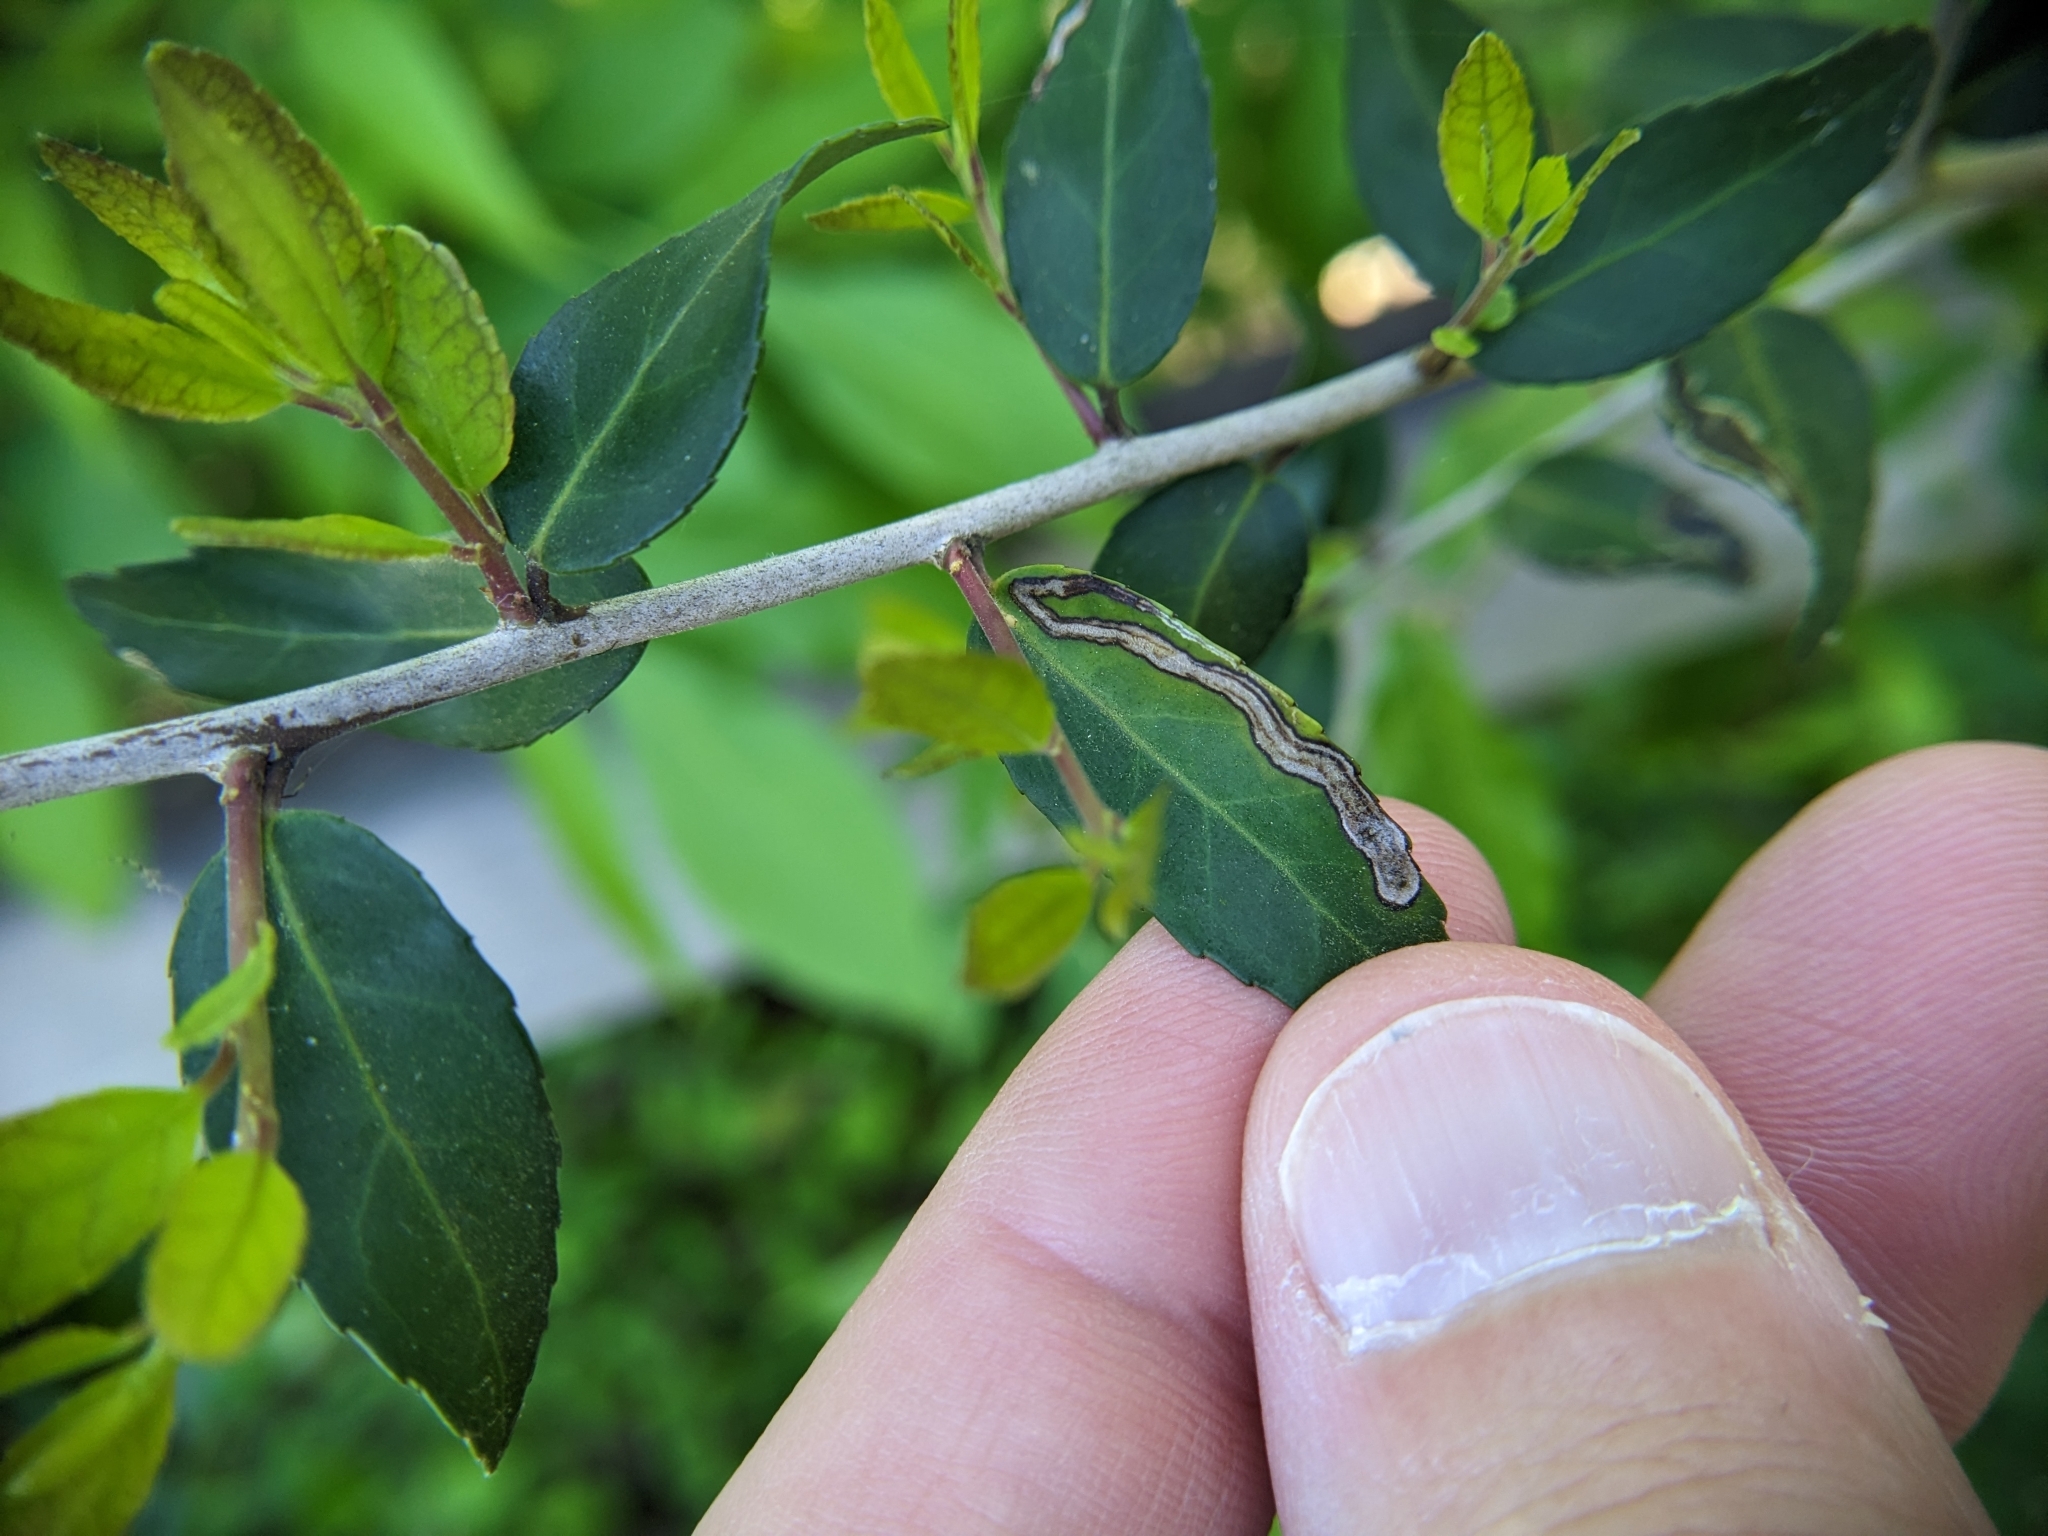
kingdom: Animalia
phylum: Arthropoda
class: Insecta
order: Diptera
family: Agromyzidae
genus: Phytomyza
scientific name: Phytomyza vomitoriae
